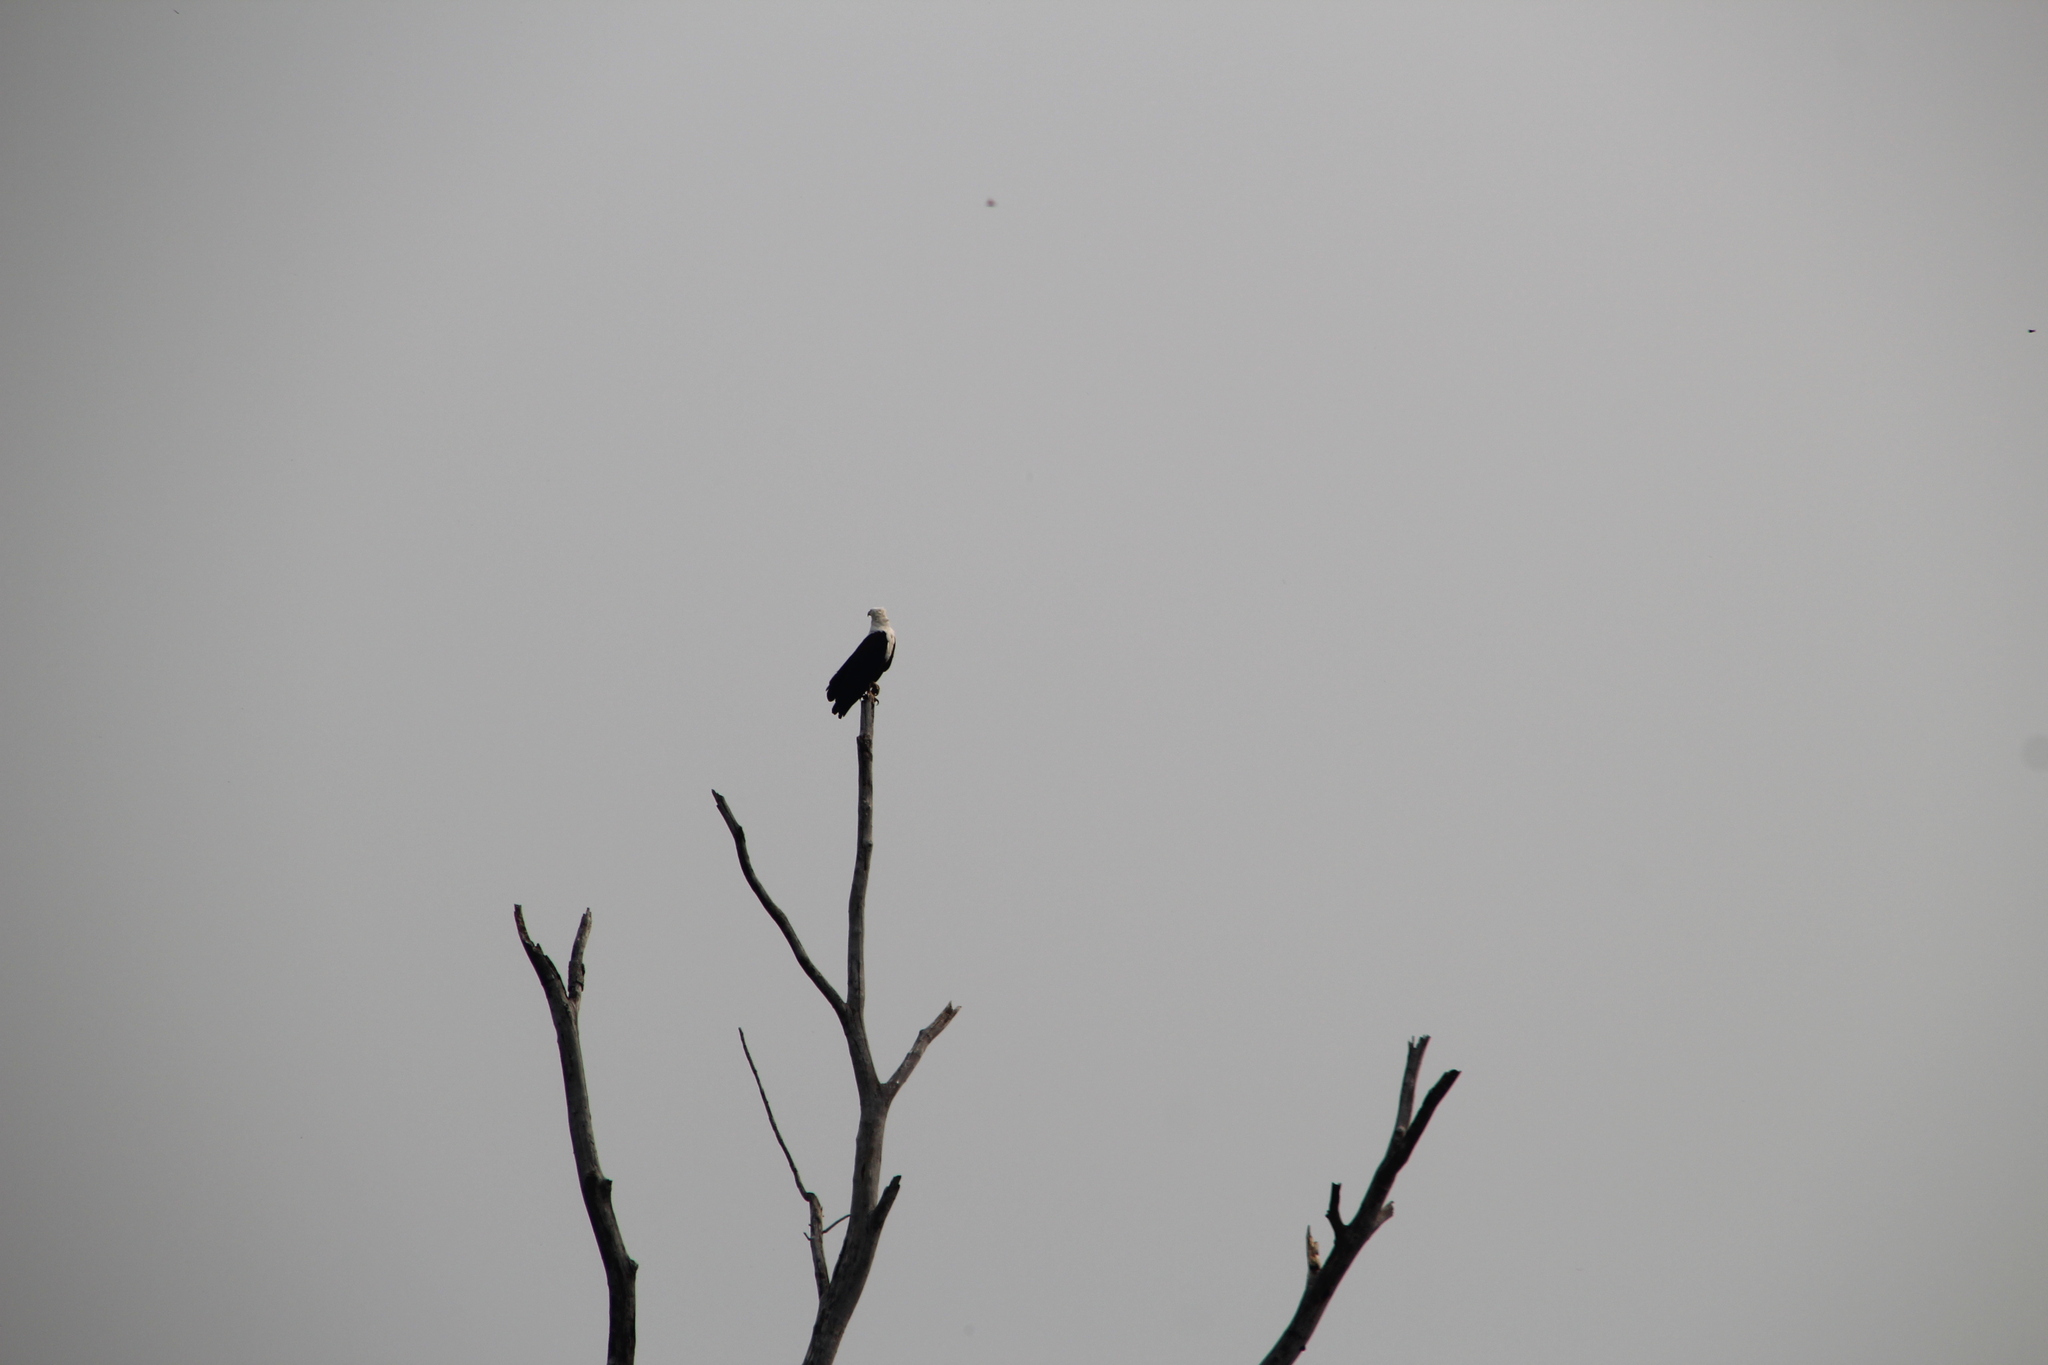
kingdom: Animalia
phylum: Chordata
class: Aves
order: Accipitriformes
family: Accipitridae
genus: Haliaeetus
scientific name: Haliaeetus vocifer
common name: African fish eagle
